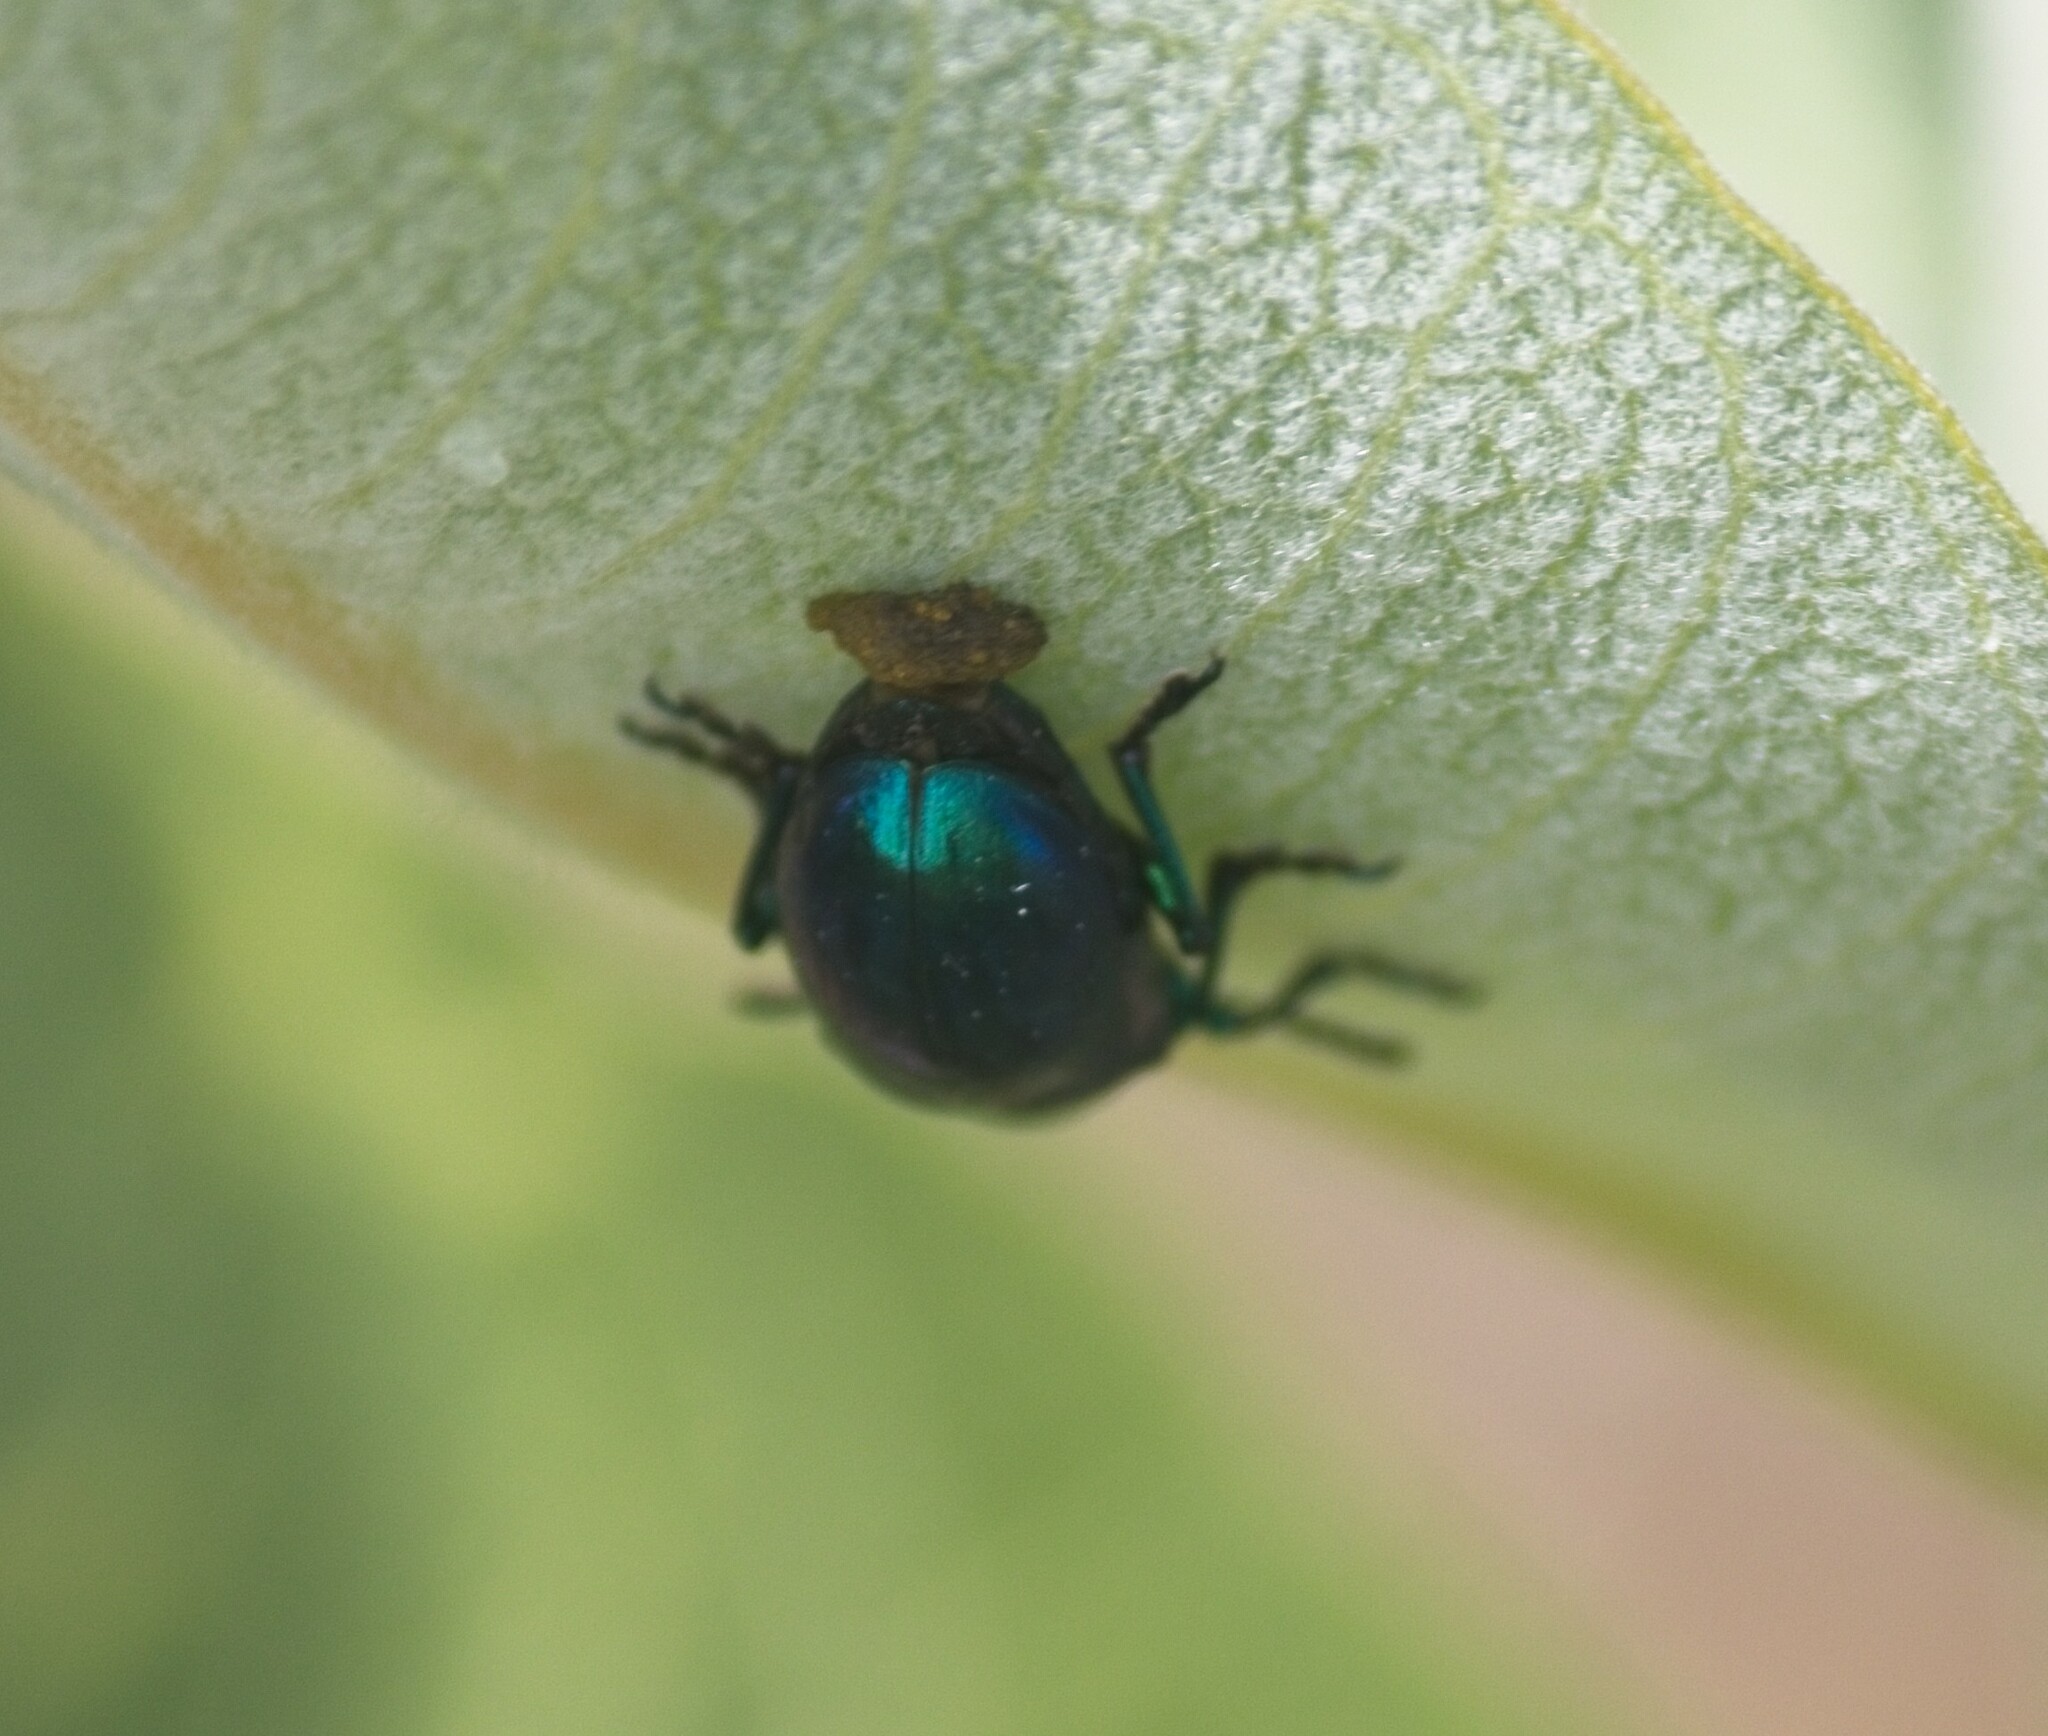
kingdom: Animalia
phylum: Arthropoda
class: Insecta
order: Coleoptera
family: Chrysomelidae
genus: Chrysochus
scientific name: Chrysochus cobaltinus
